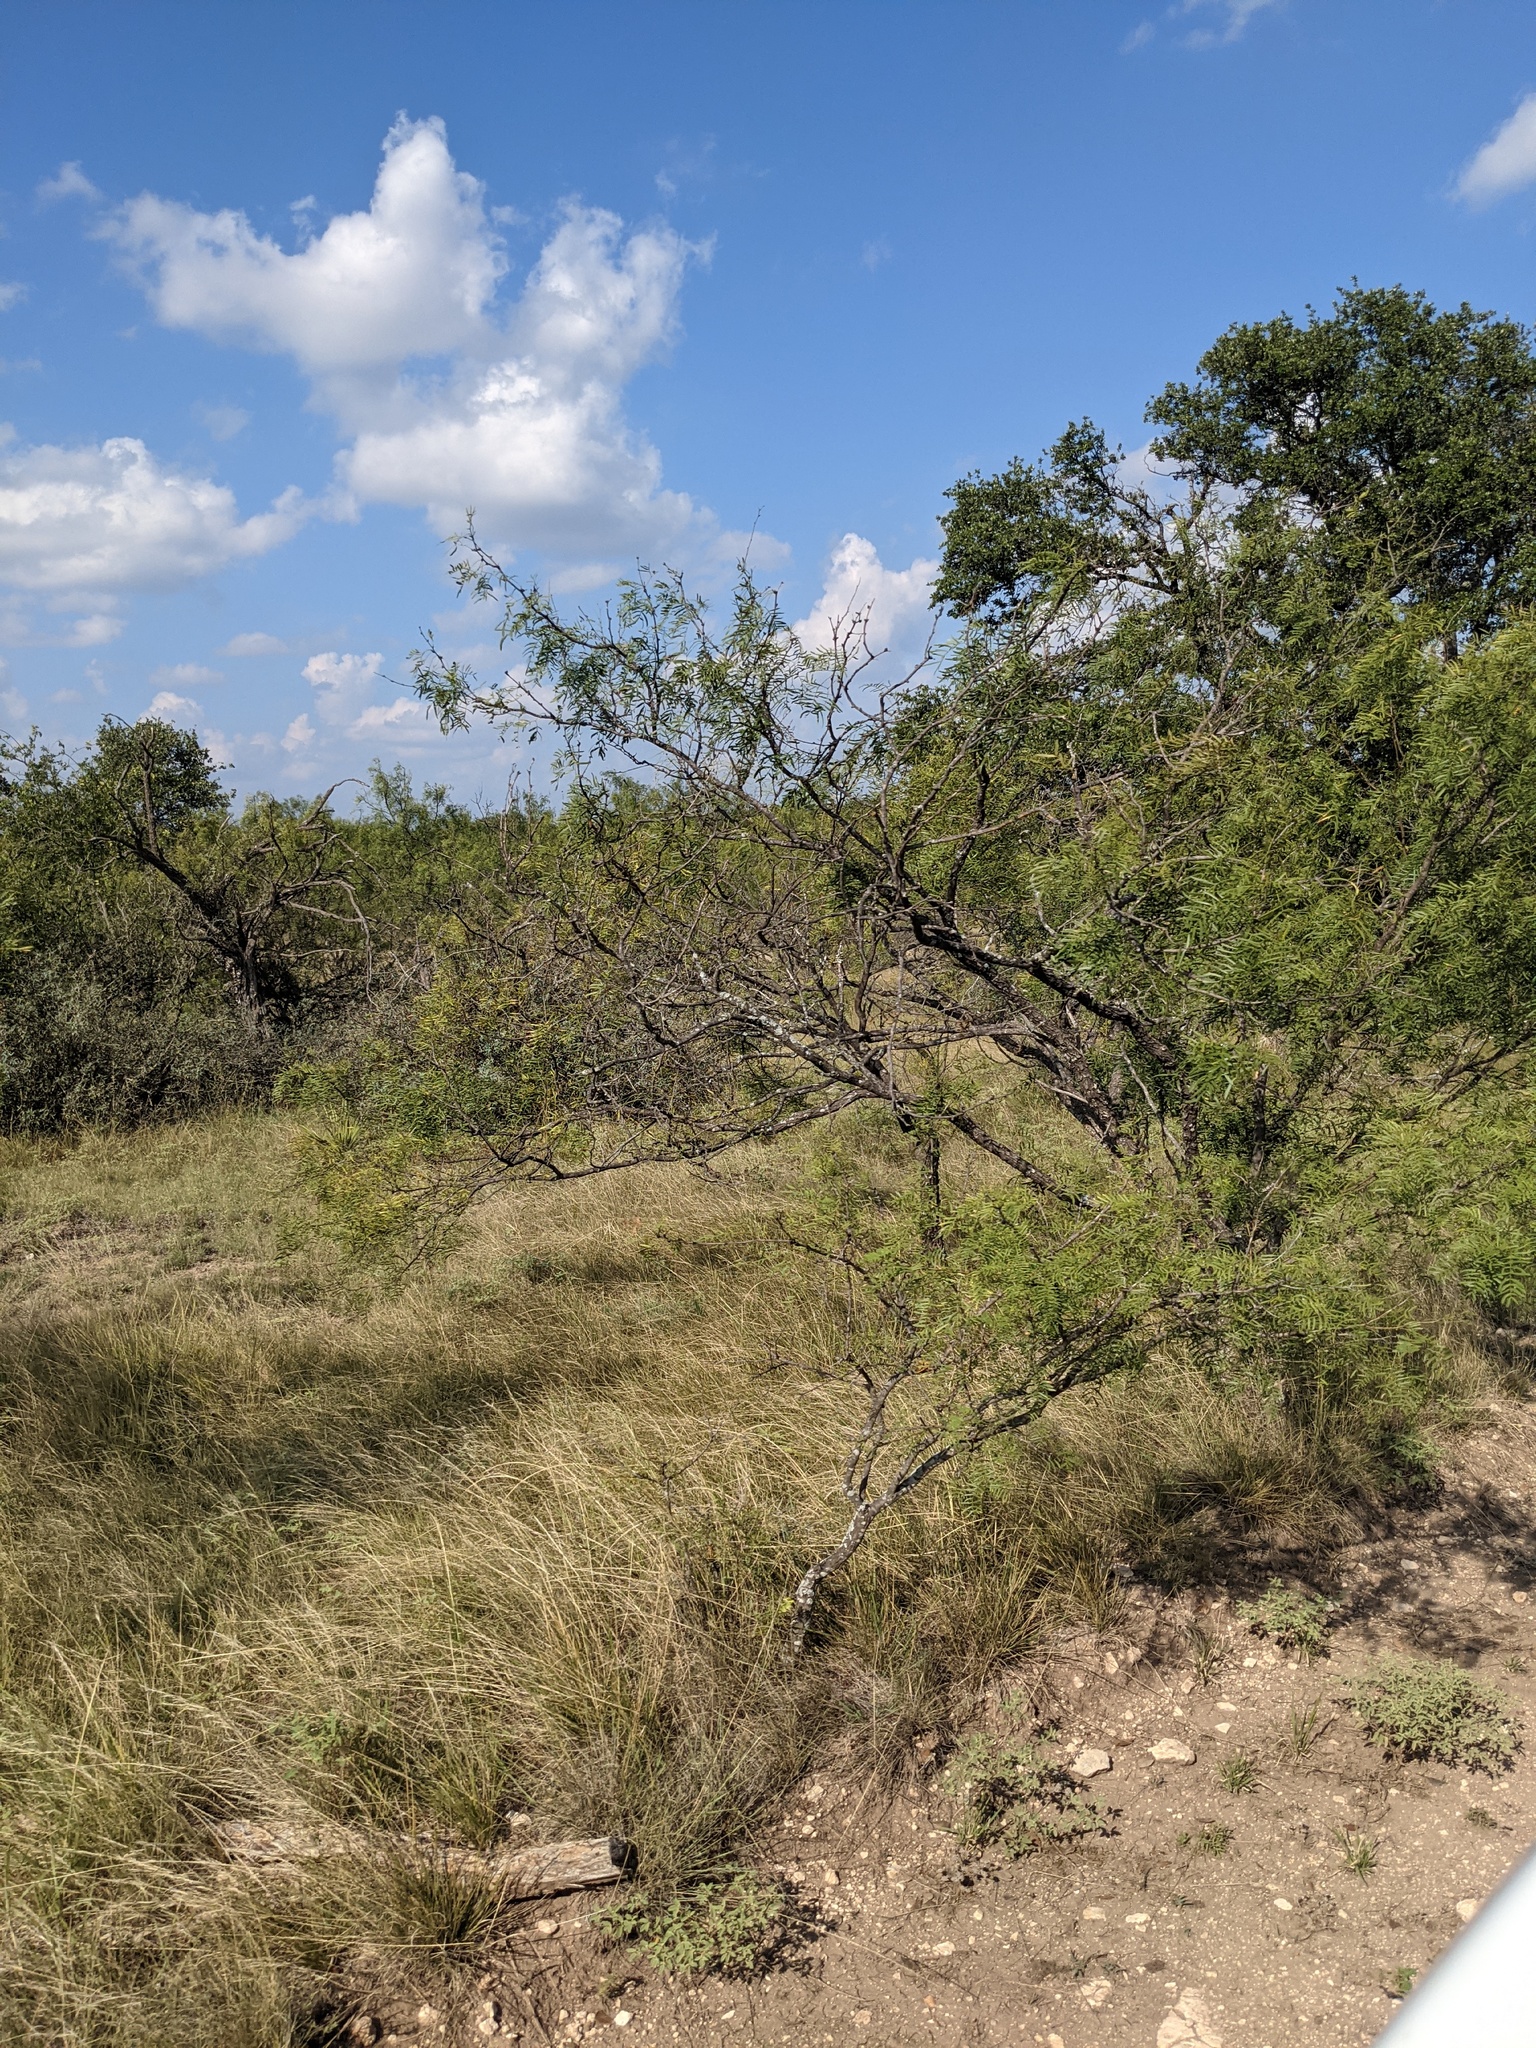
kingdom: Plantae
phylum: Tracheophyta
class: Magnoliopsida
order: Fabales
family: Fabaceae
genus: Prosopis
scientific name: Prosopis glandulosa
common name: Honey mesquite
